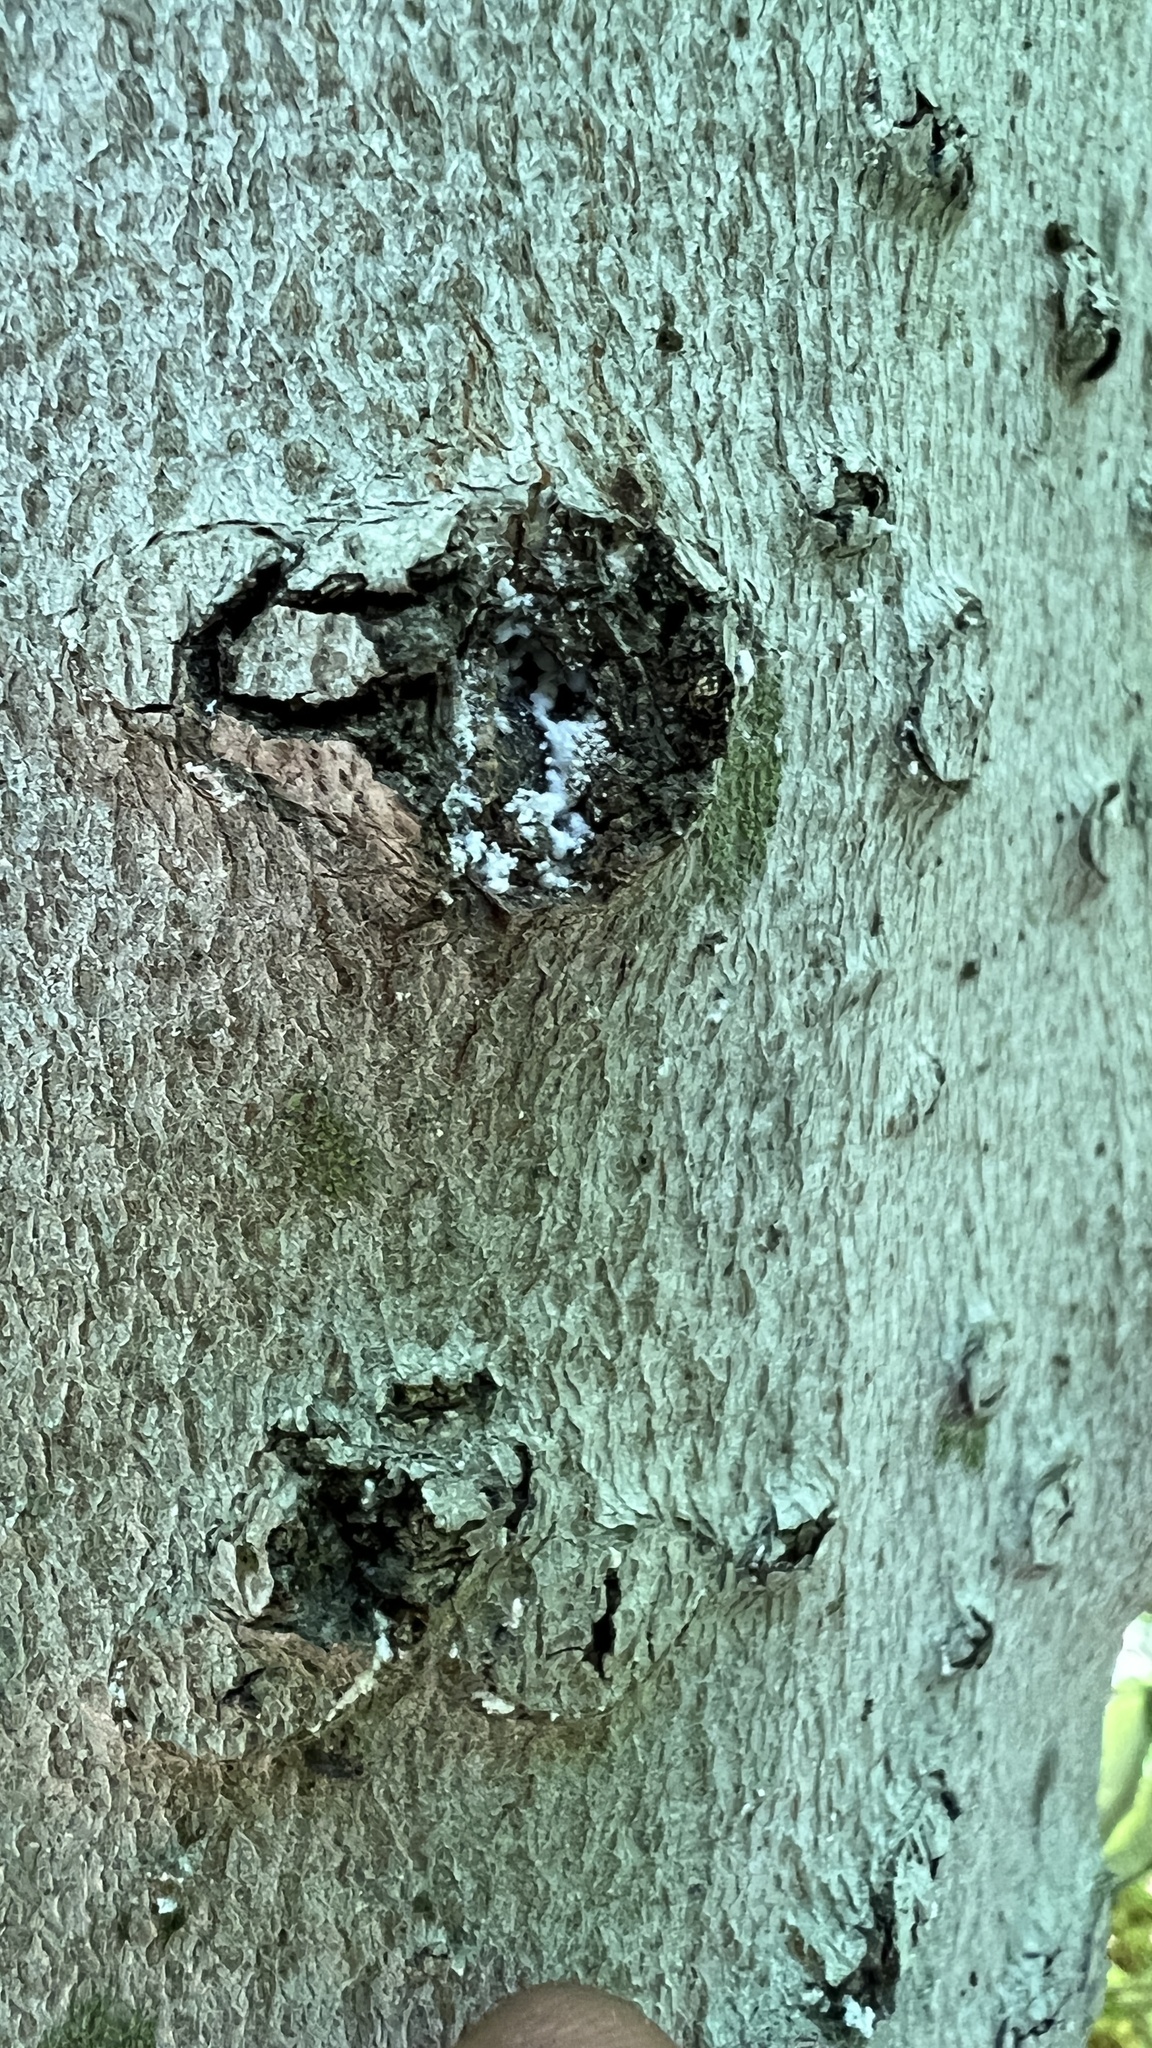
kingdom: Animalia
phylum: Arthropoda
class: Insecta
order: Hemiptera
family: Eriococcidae
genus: Cryptococcus
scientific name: Cryptococcus fagisuga
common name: Beech scale
